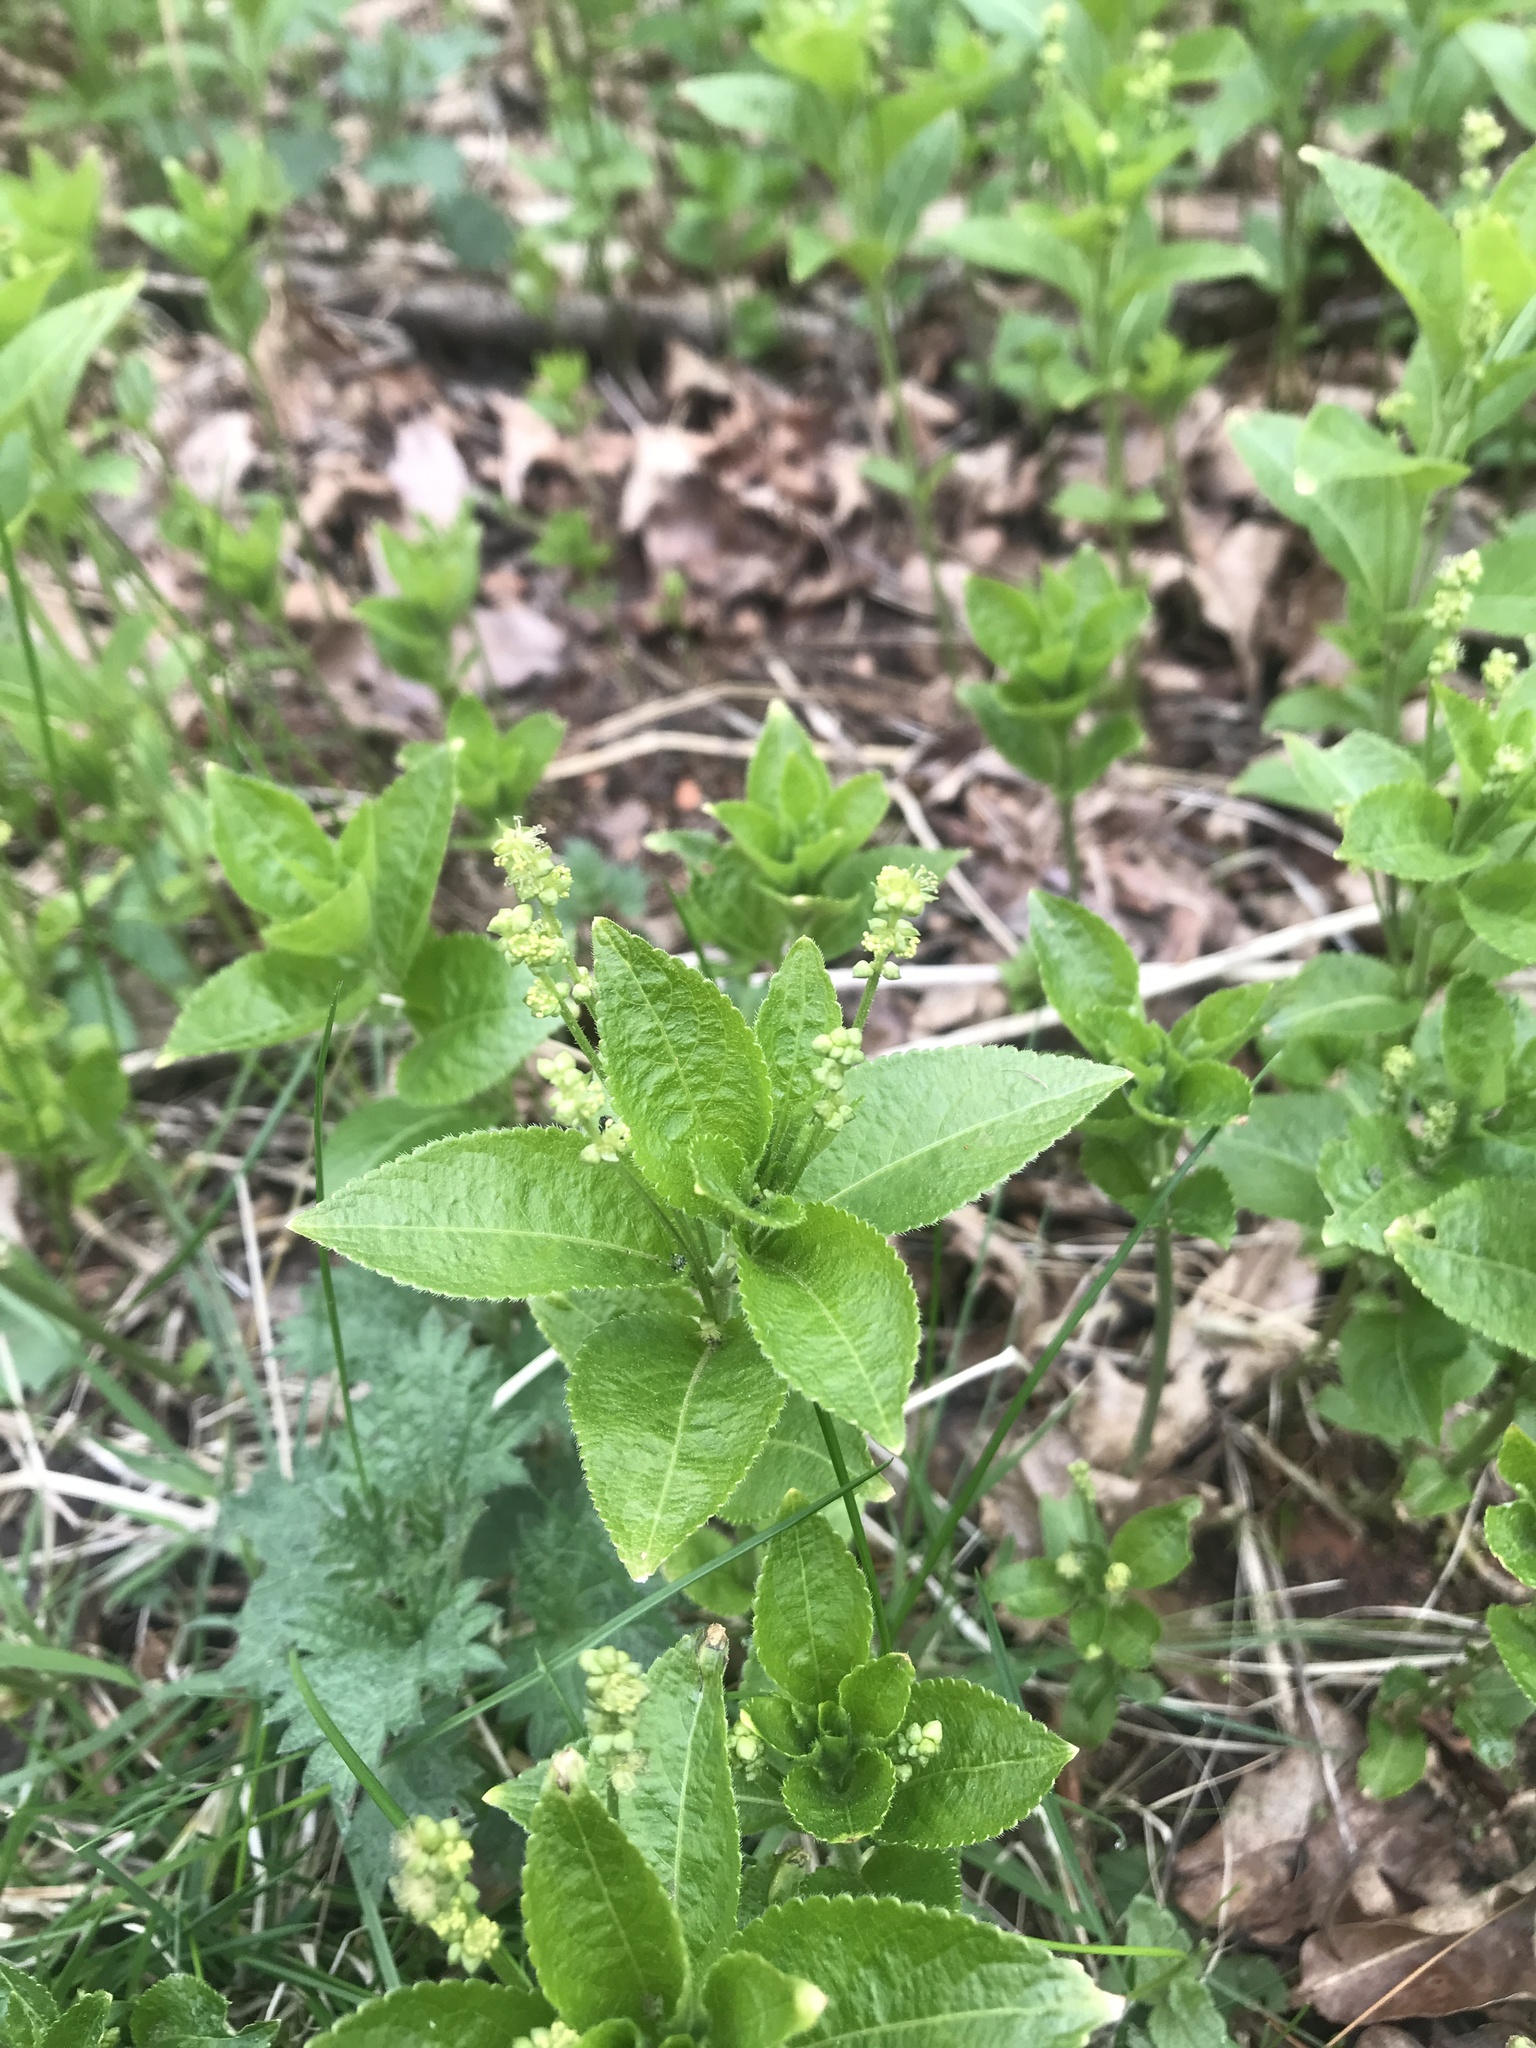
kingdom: Plantae
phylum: Tracheophyta
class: Magnoliopsida
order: Malpighiales
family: Euphorbiaceae
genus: Mercurialis
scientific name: Mercurialis perennis
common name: Dog mercury
